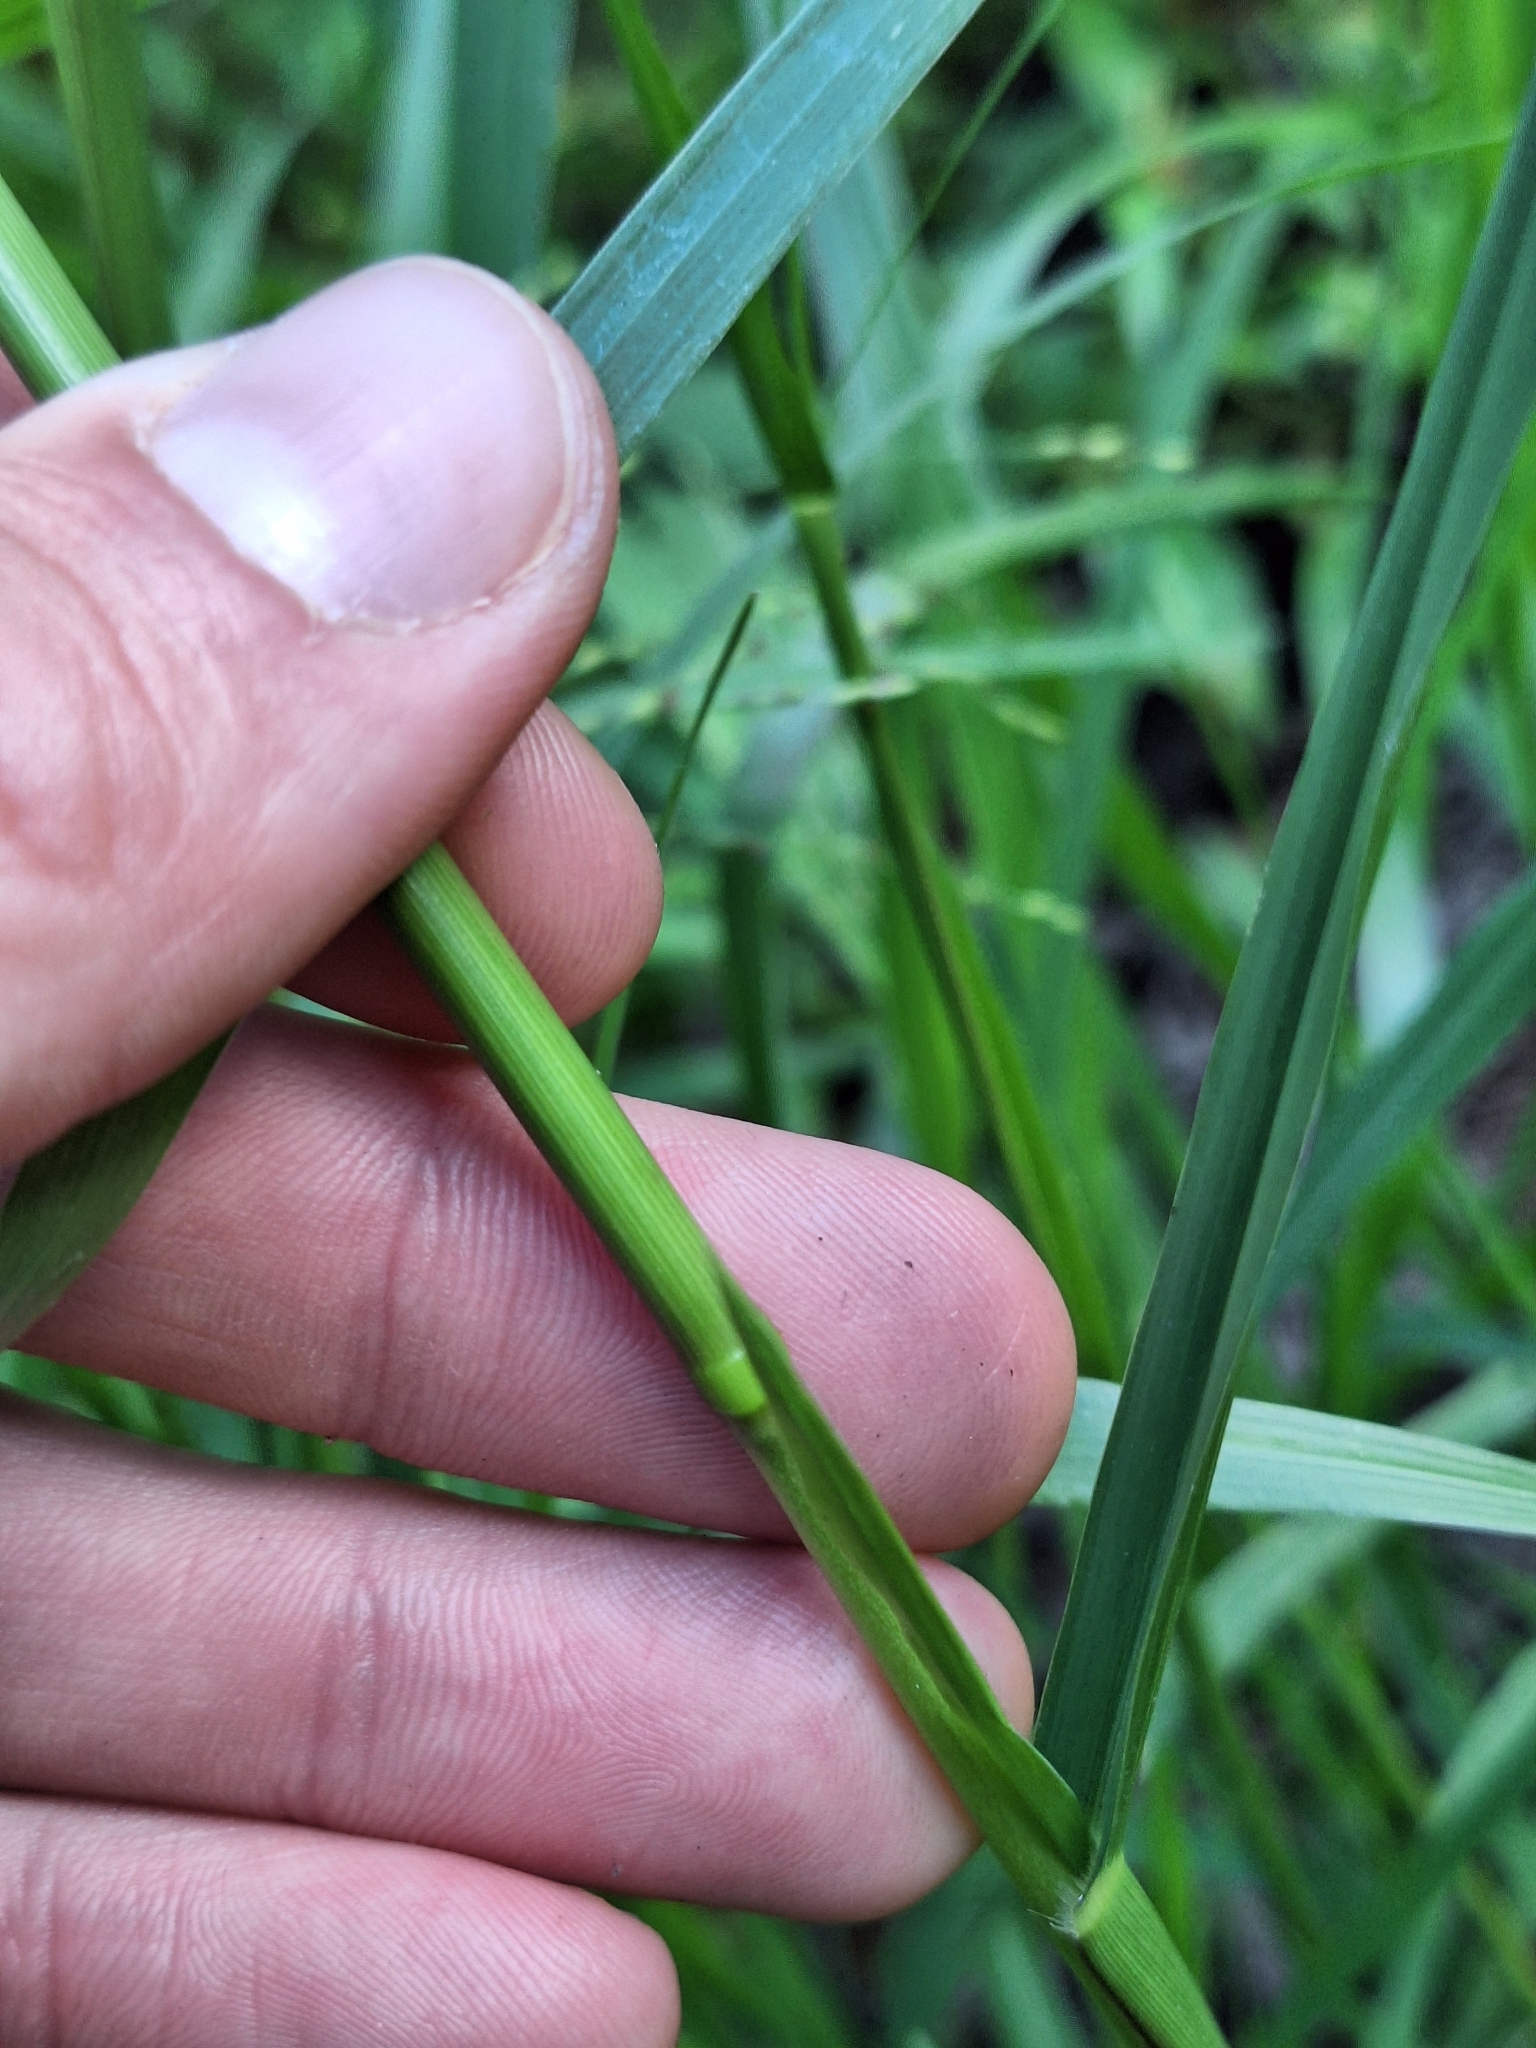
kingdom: Plantae
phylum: Tracheophyta
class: Liliopsida
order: Poales
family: Poaceae
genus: Panicum
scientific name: Panicum dichotomiflorum
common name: Autumn millet
